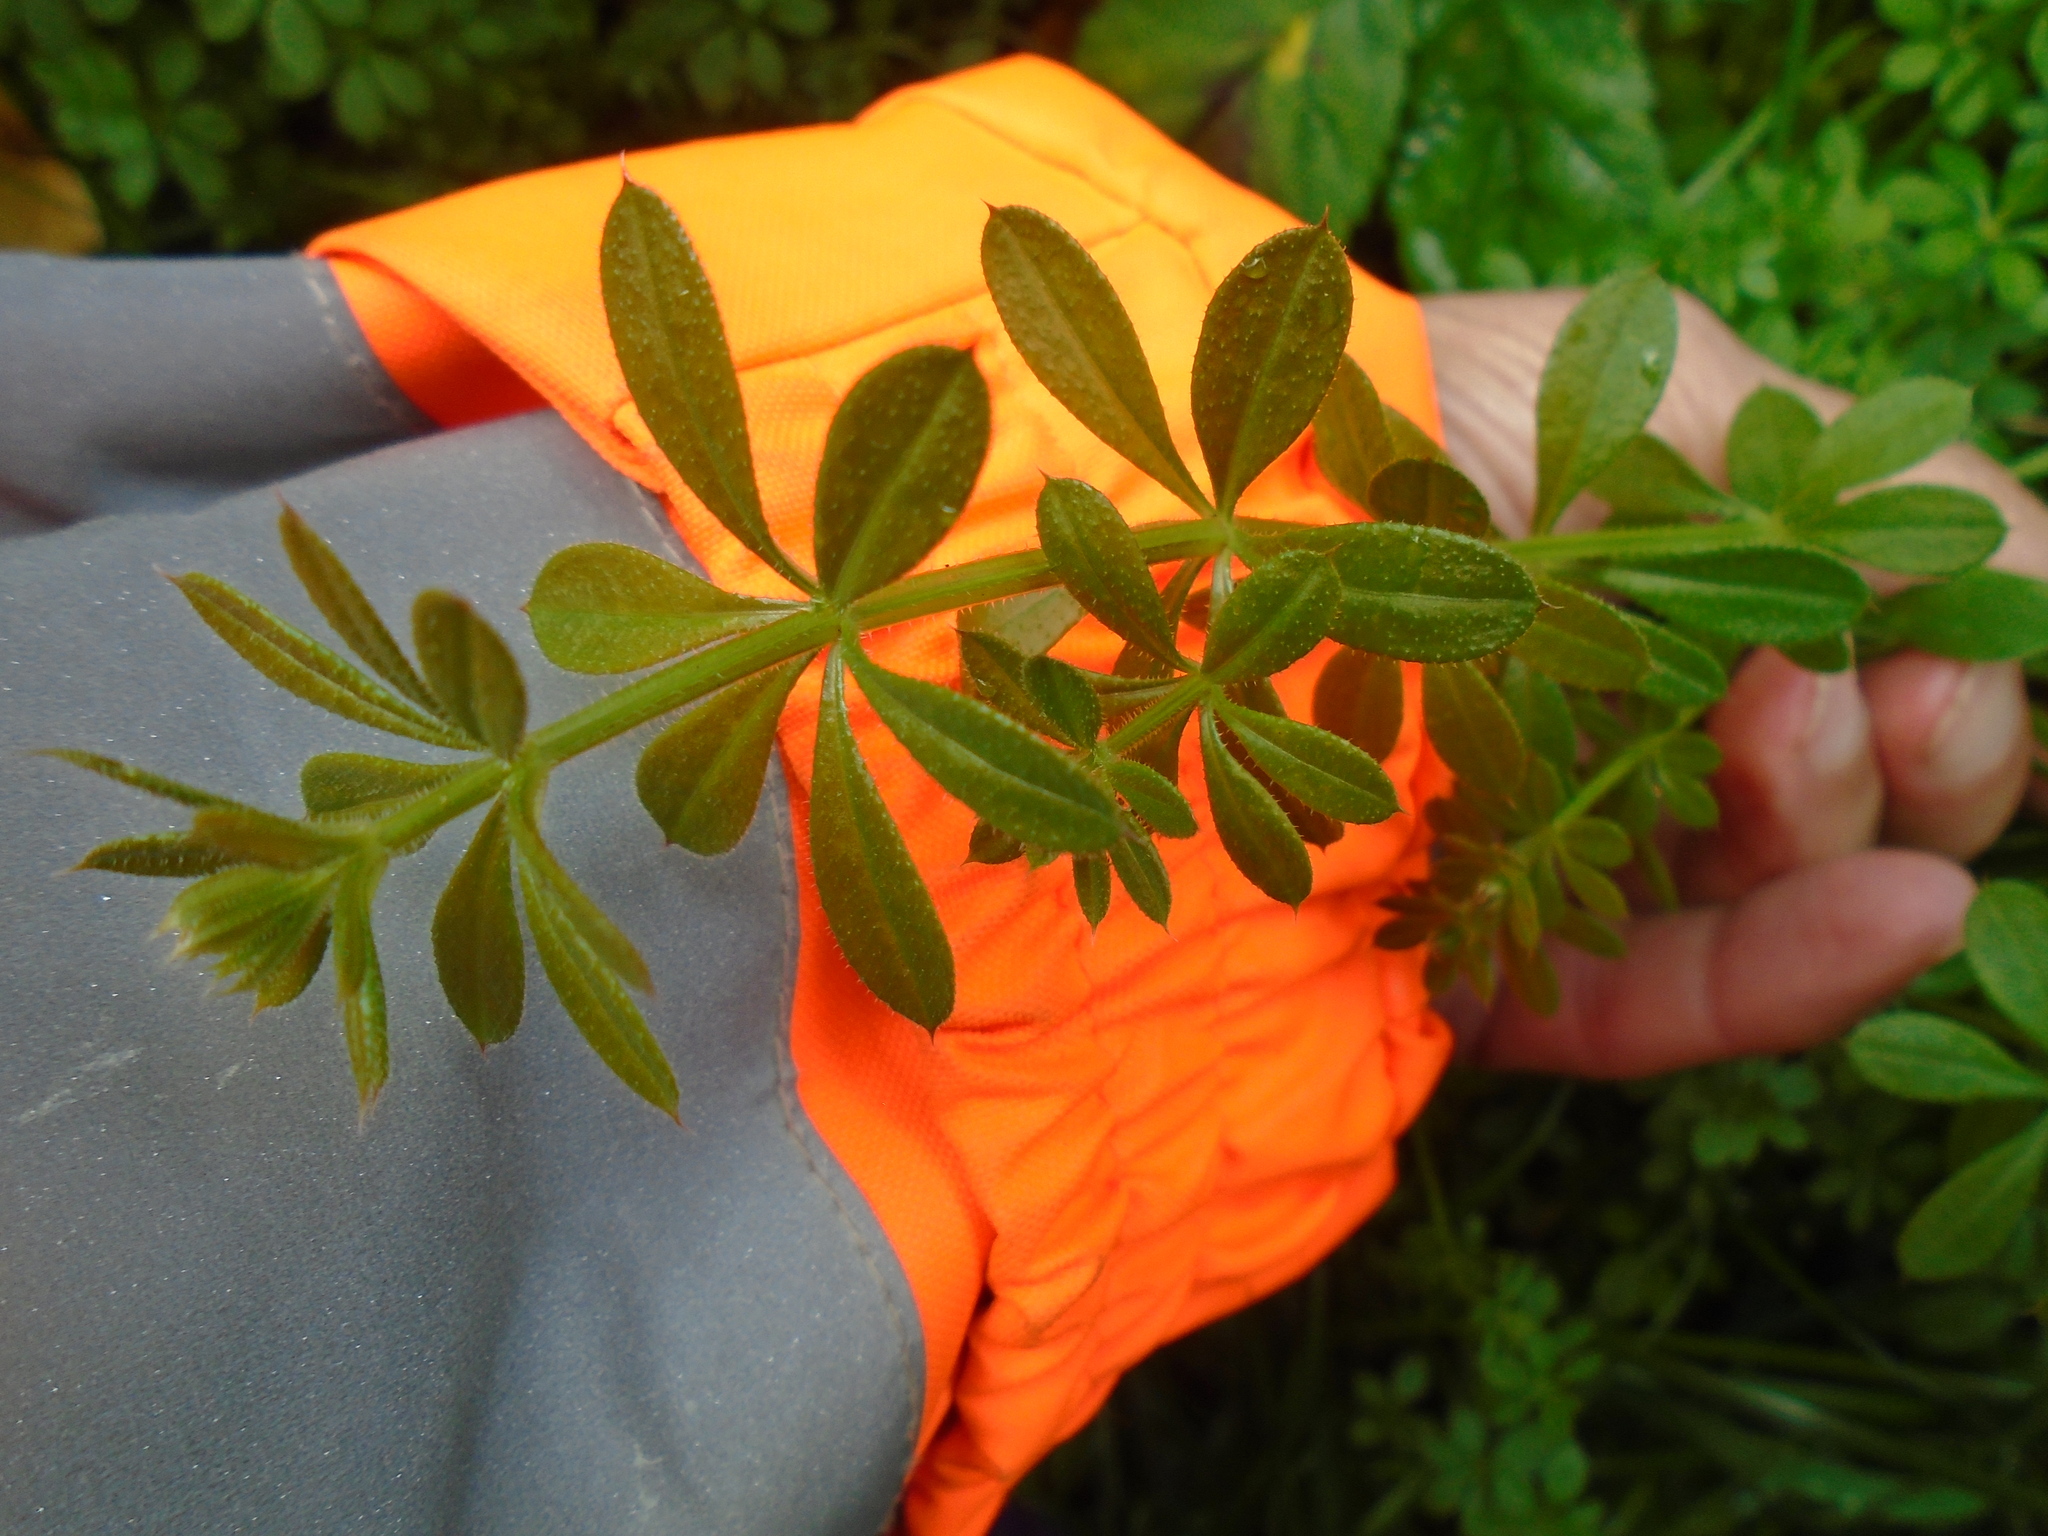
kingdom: Plantae
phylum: Tracheophyta
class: Magnoliopsida
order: Gentianales
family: Rubiaceae
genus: Galium
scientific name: Galium aparine
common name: Cleavers
